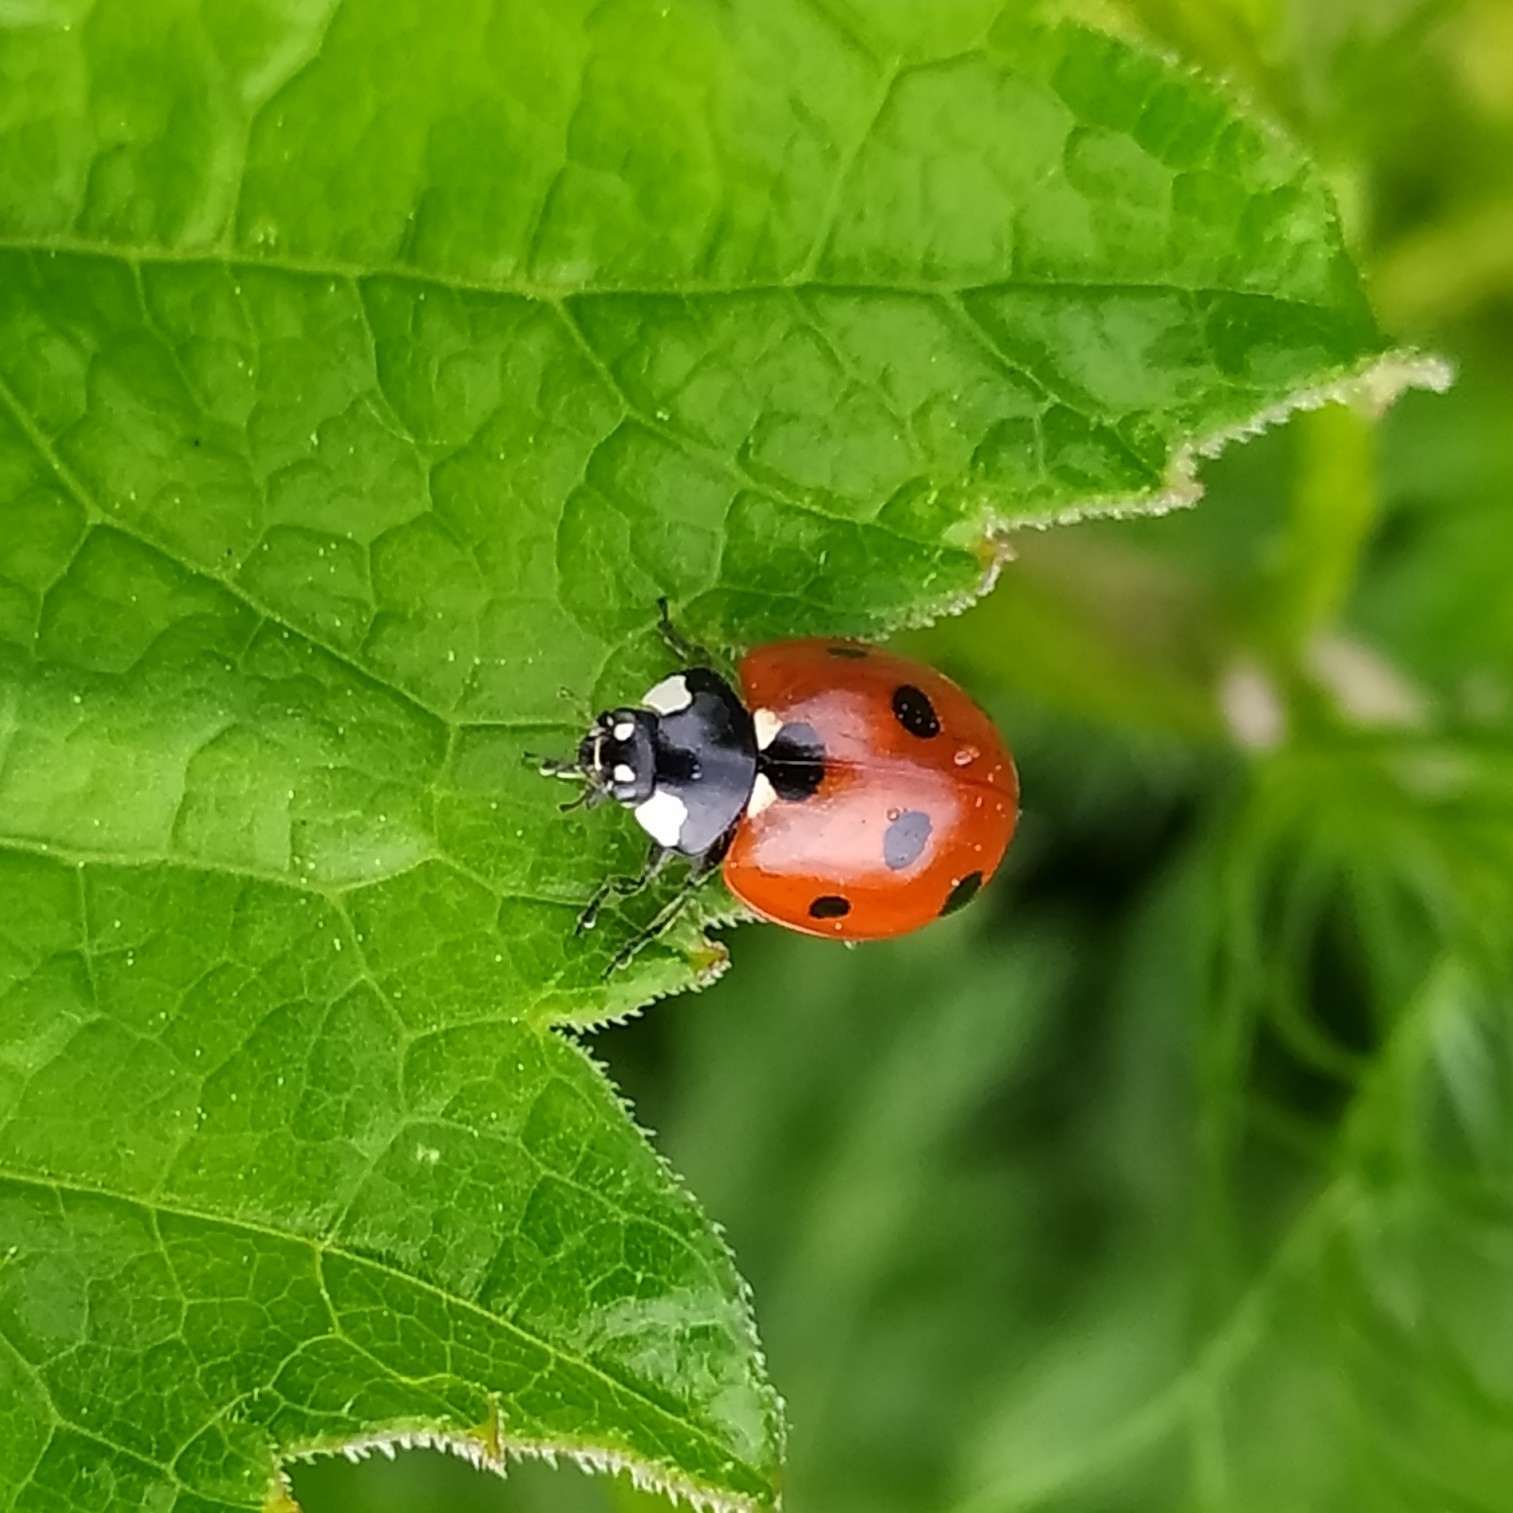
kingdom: Animalia
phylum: Arthropoda
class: Insecta
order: Coleoptera
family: Coccinellidae
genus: Coccinella
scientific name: Coccinella septempunctata
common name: Sevenspotted lady beetle
